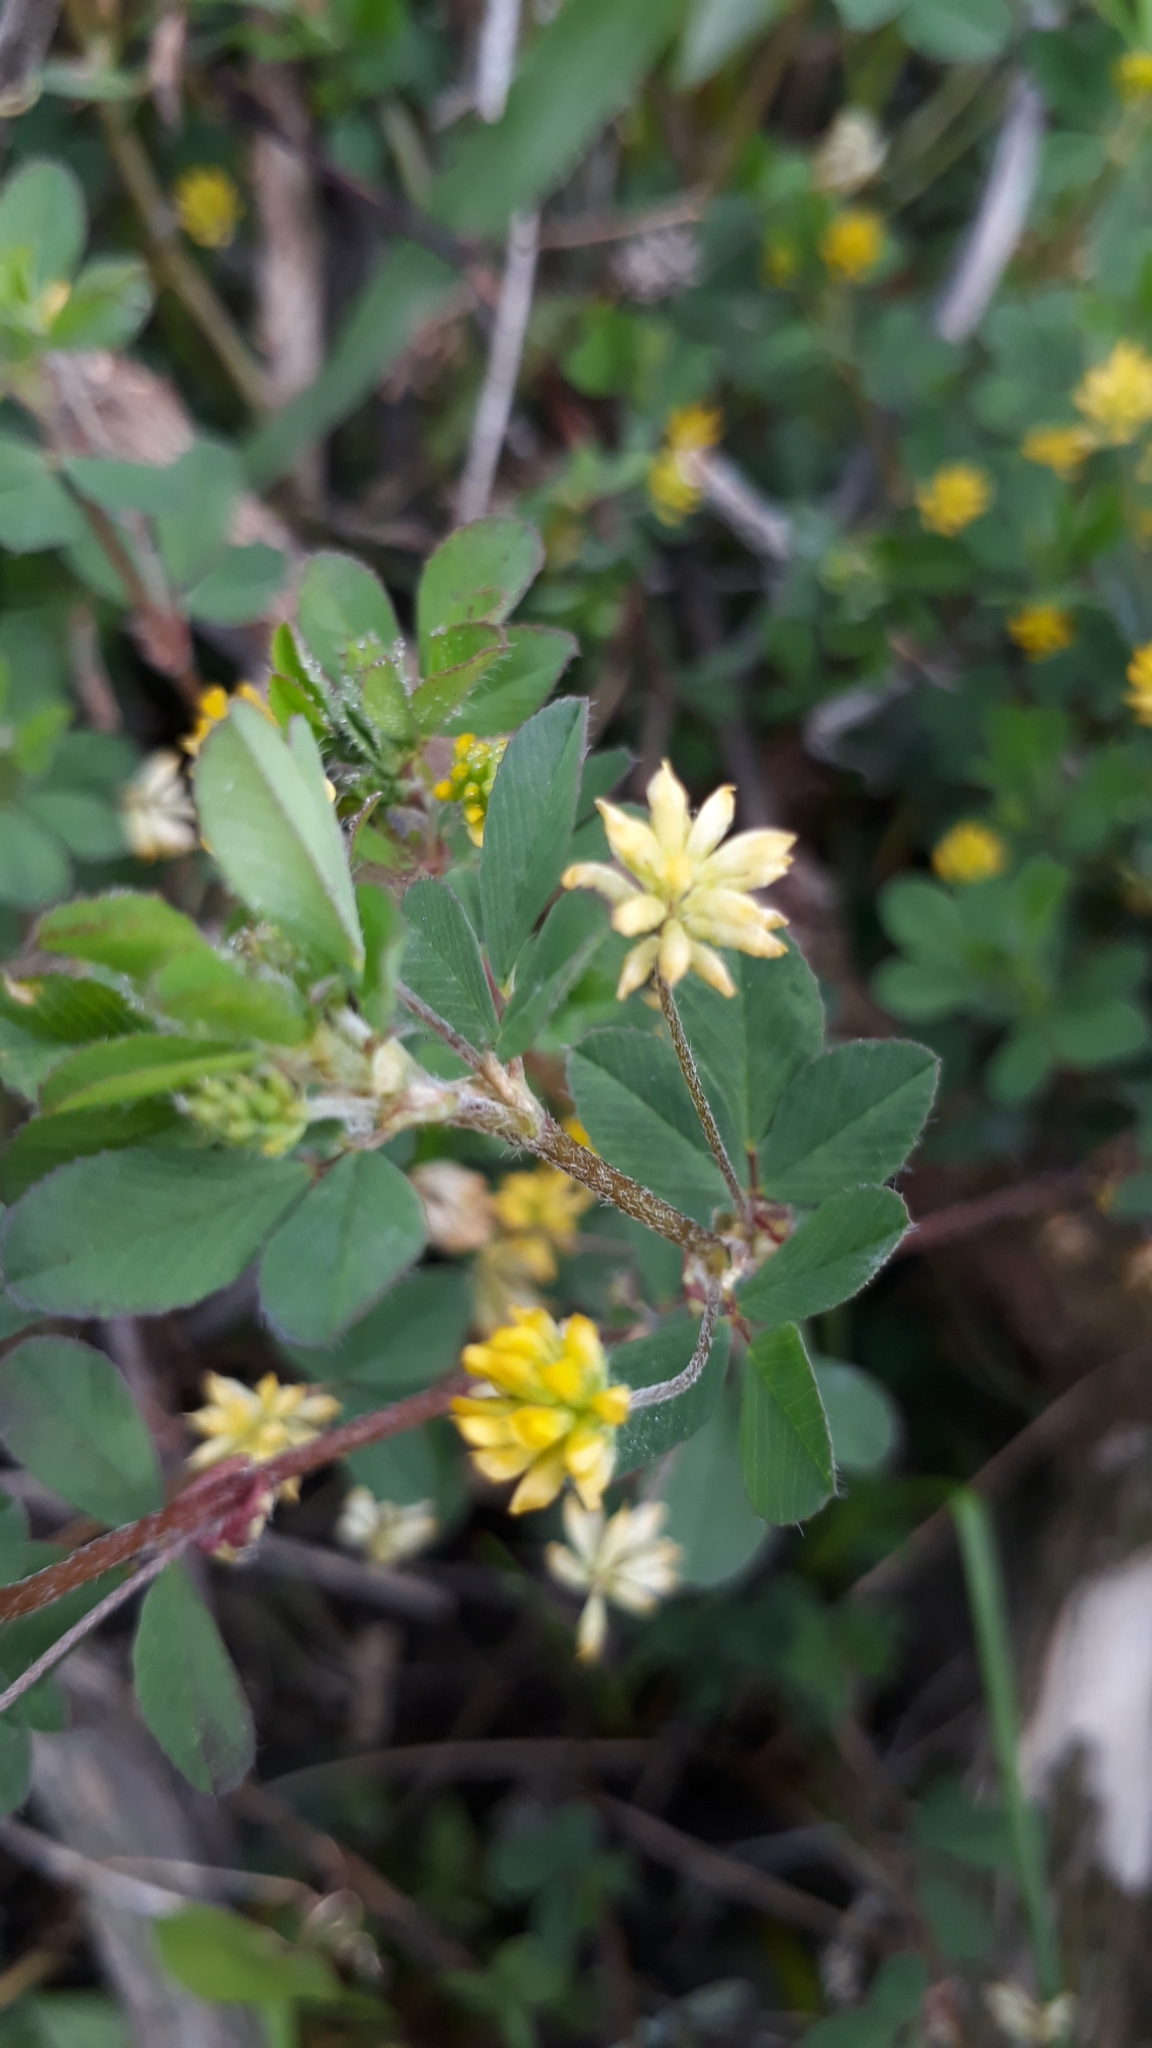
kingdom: Plantae
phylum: Tracheophyta
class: Magnoliopsida
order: Fabales
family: Fabaceae
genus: Trifolium
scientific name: Trifolium dubium
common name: Suckling clover
